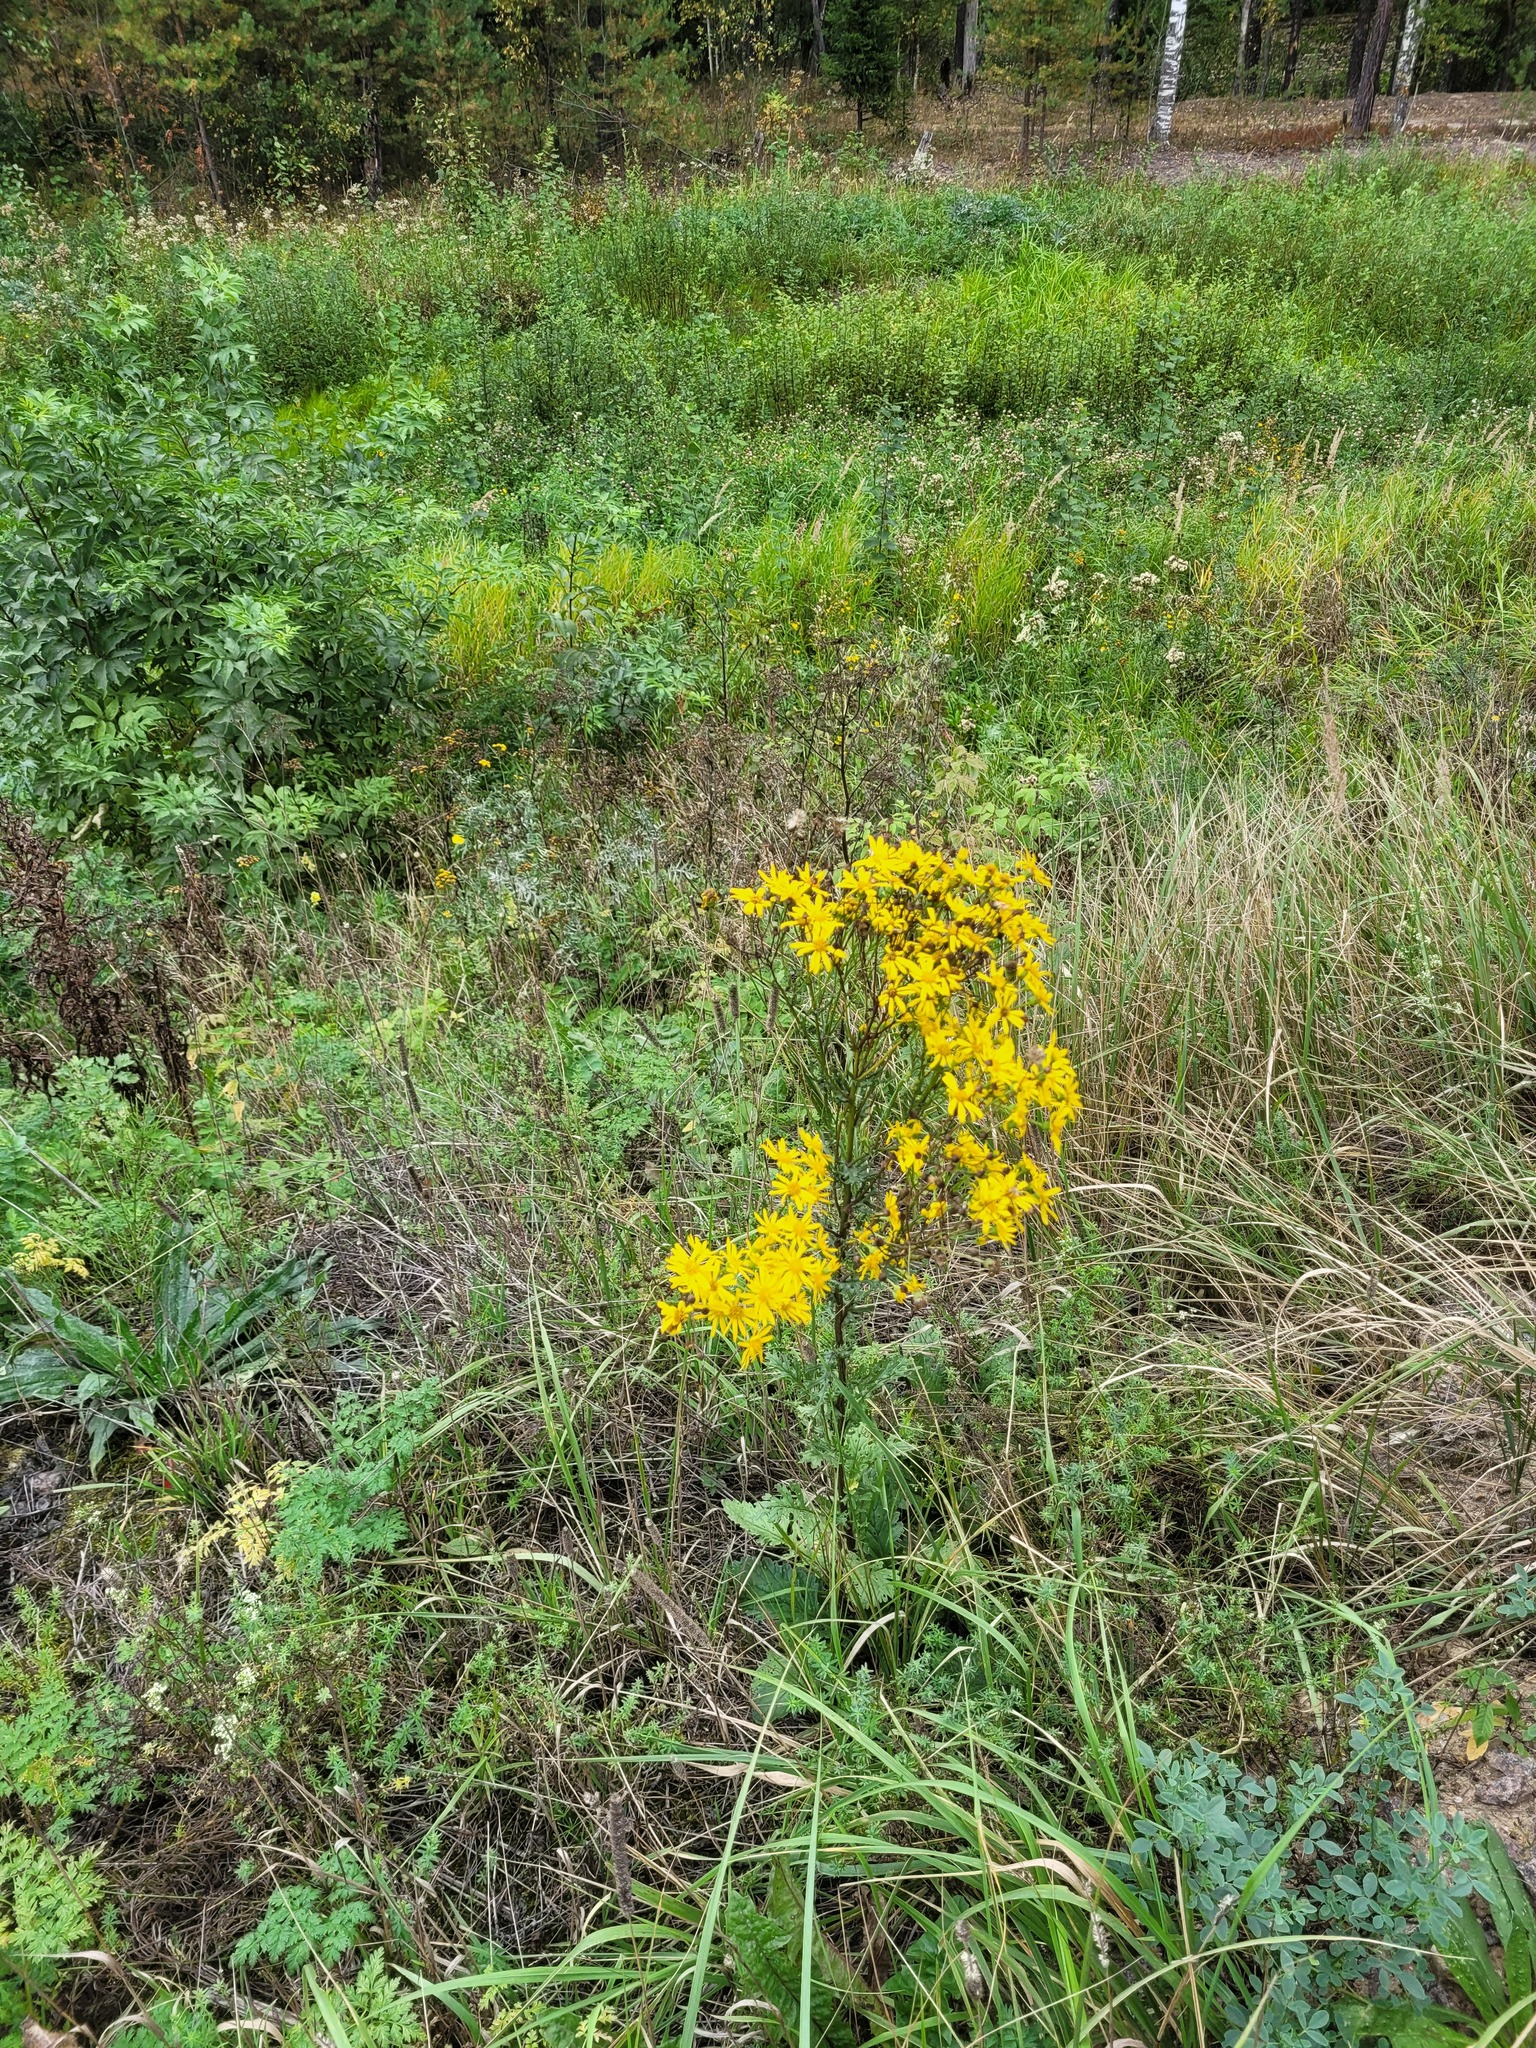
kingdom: Plantae
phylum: Tracheophyta
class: Magnoliopsida
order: Asterales
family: Asteraceae
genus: Jacobaea
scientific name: Jacobaea vulgaris
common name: Stinking willie
